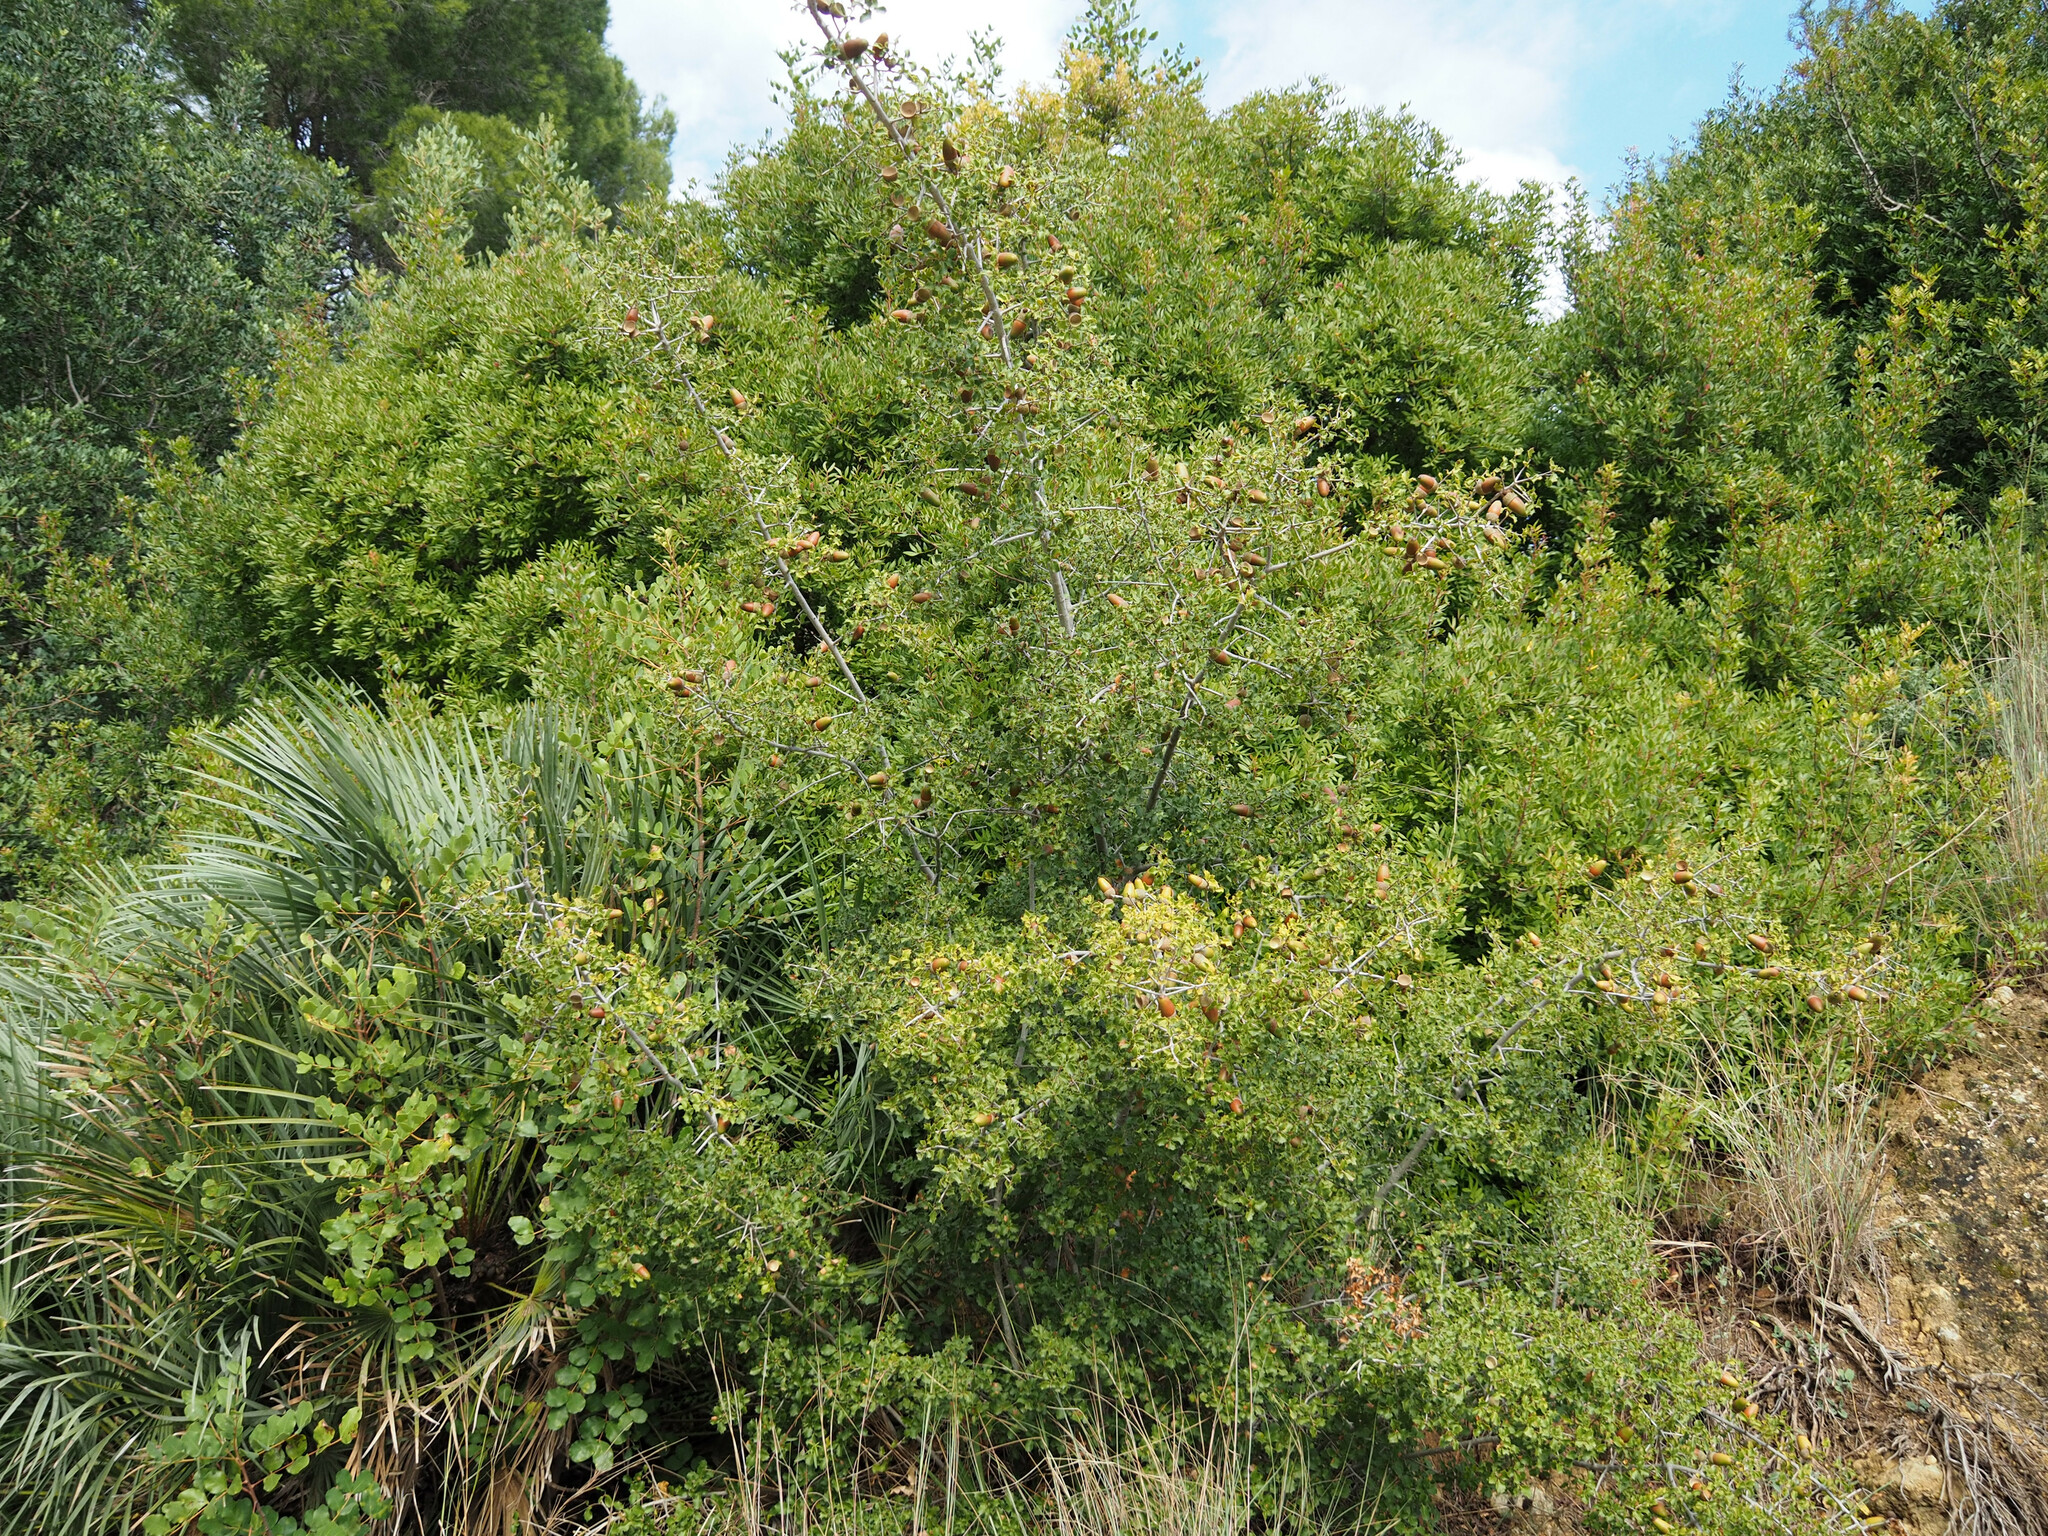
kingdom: Plantae
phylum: Tracheophyta
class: Magnoliopsida
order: Fagales
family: Fagaceae
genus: Quercus
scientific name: Quercus coccifera
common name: Kermes oak
